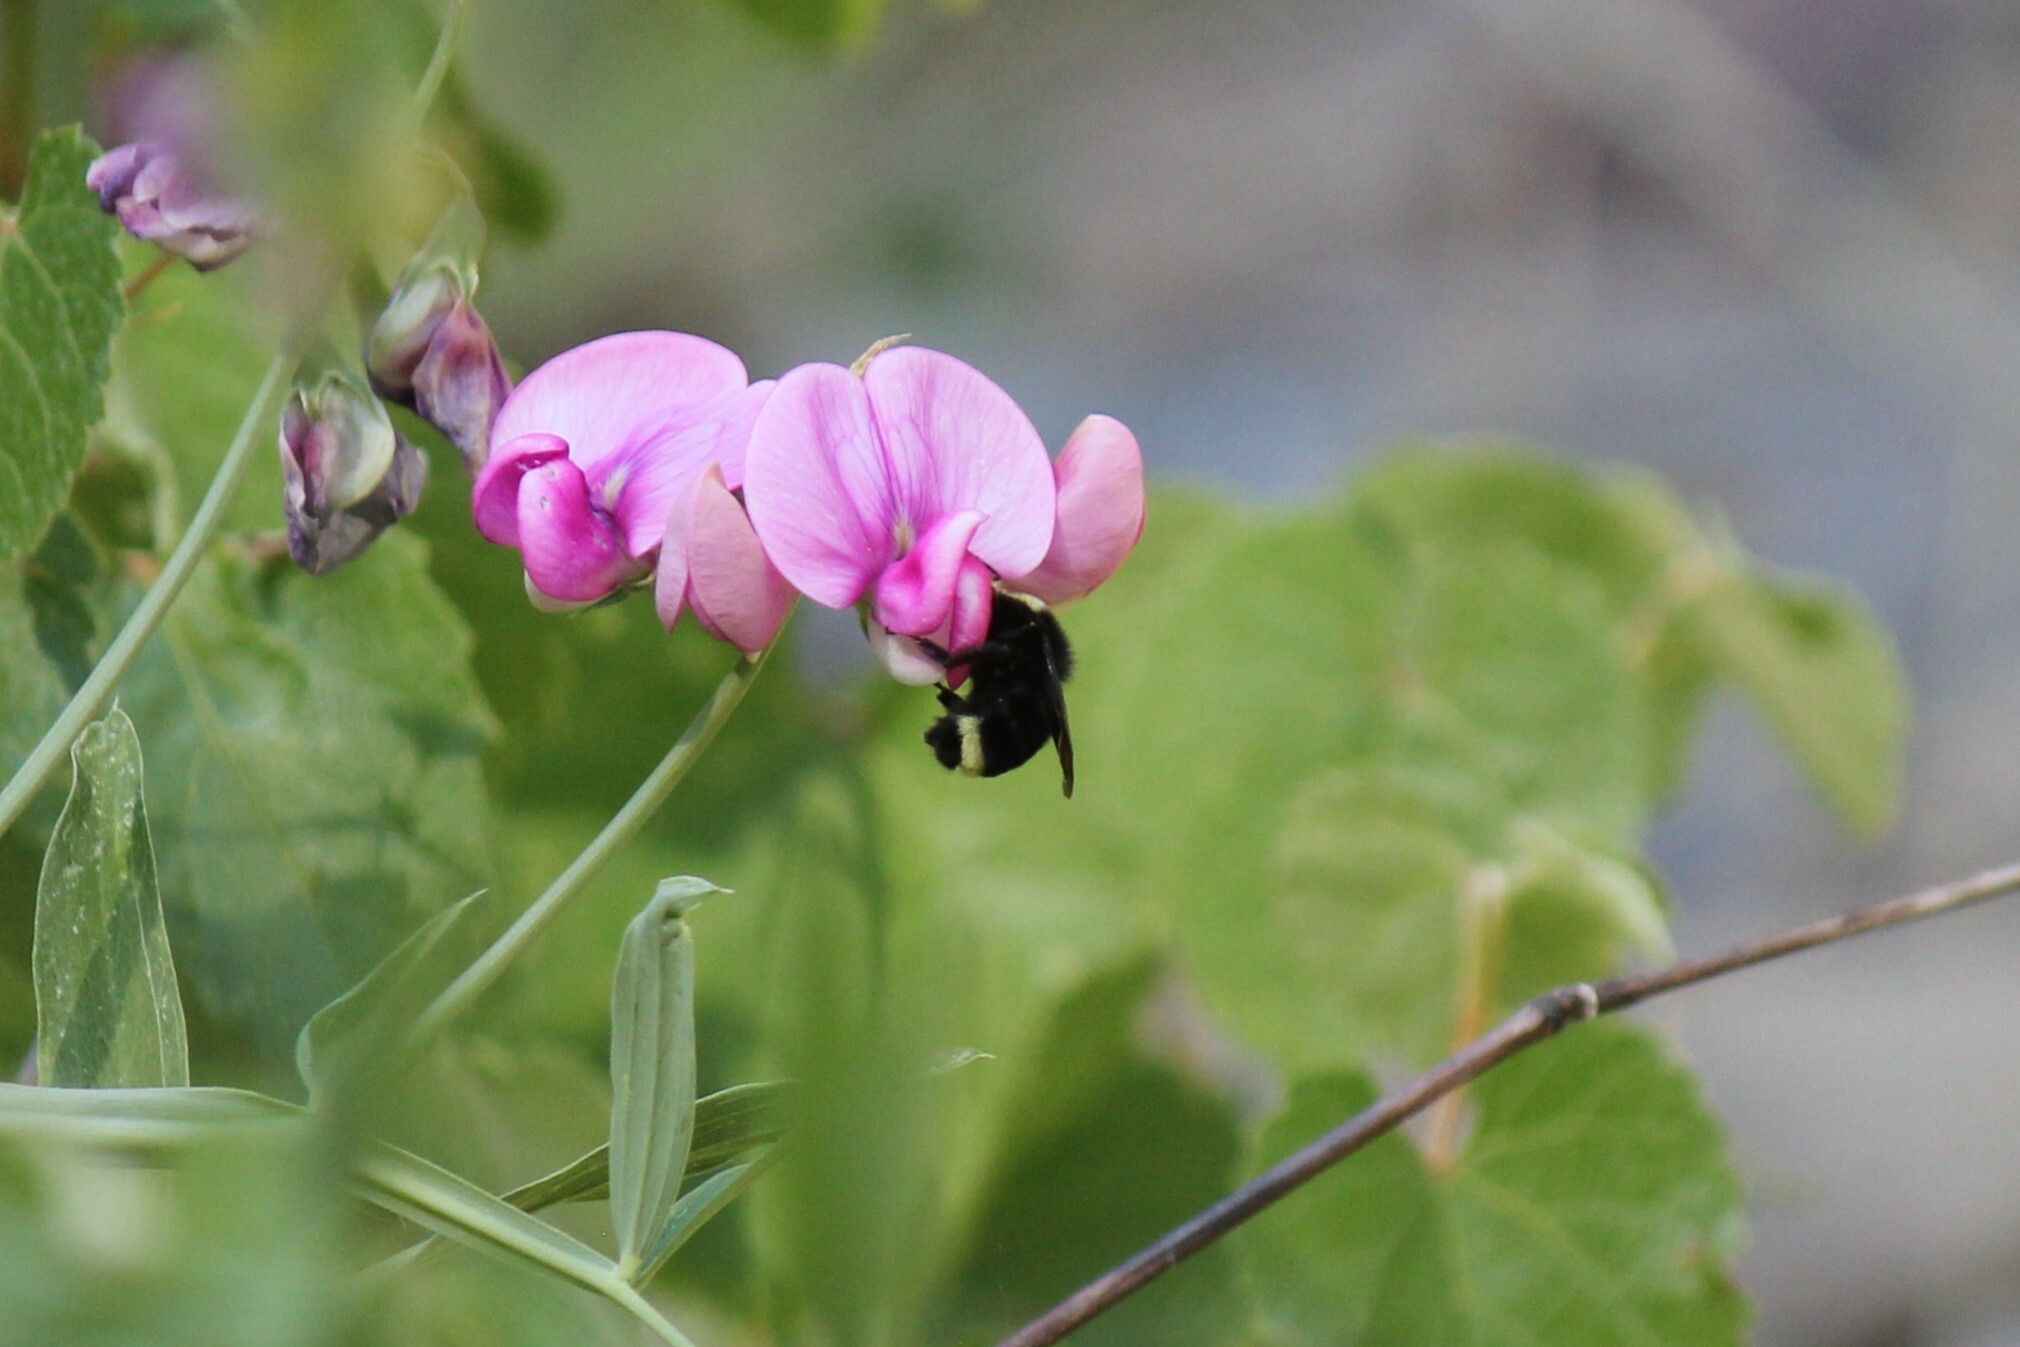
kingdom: Animalia
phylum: Arthropoda
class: Insecta
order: Hymenoptera
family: Apidae
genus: Bombus
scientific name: Bombus vosnesenskii
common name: Vosnesensky bumble bee
